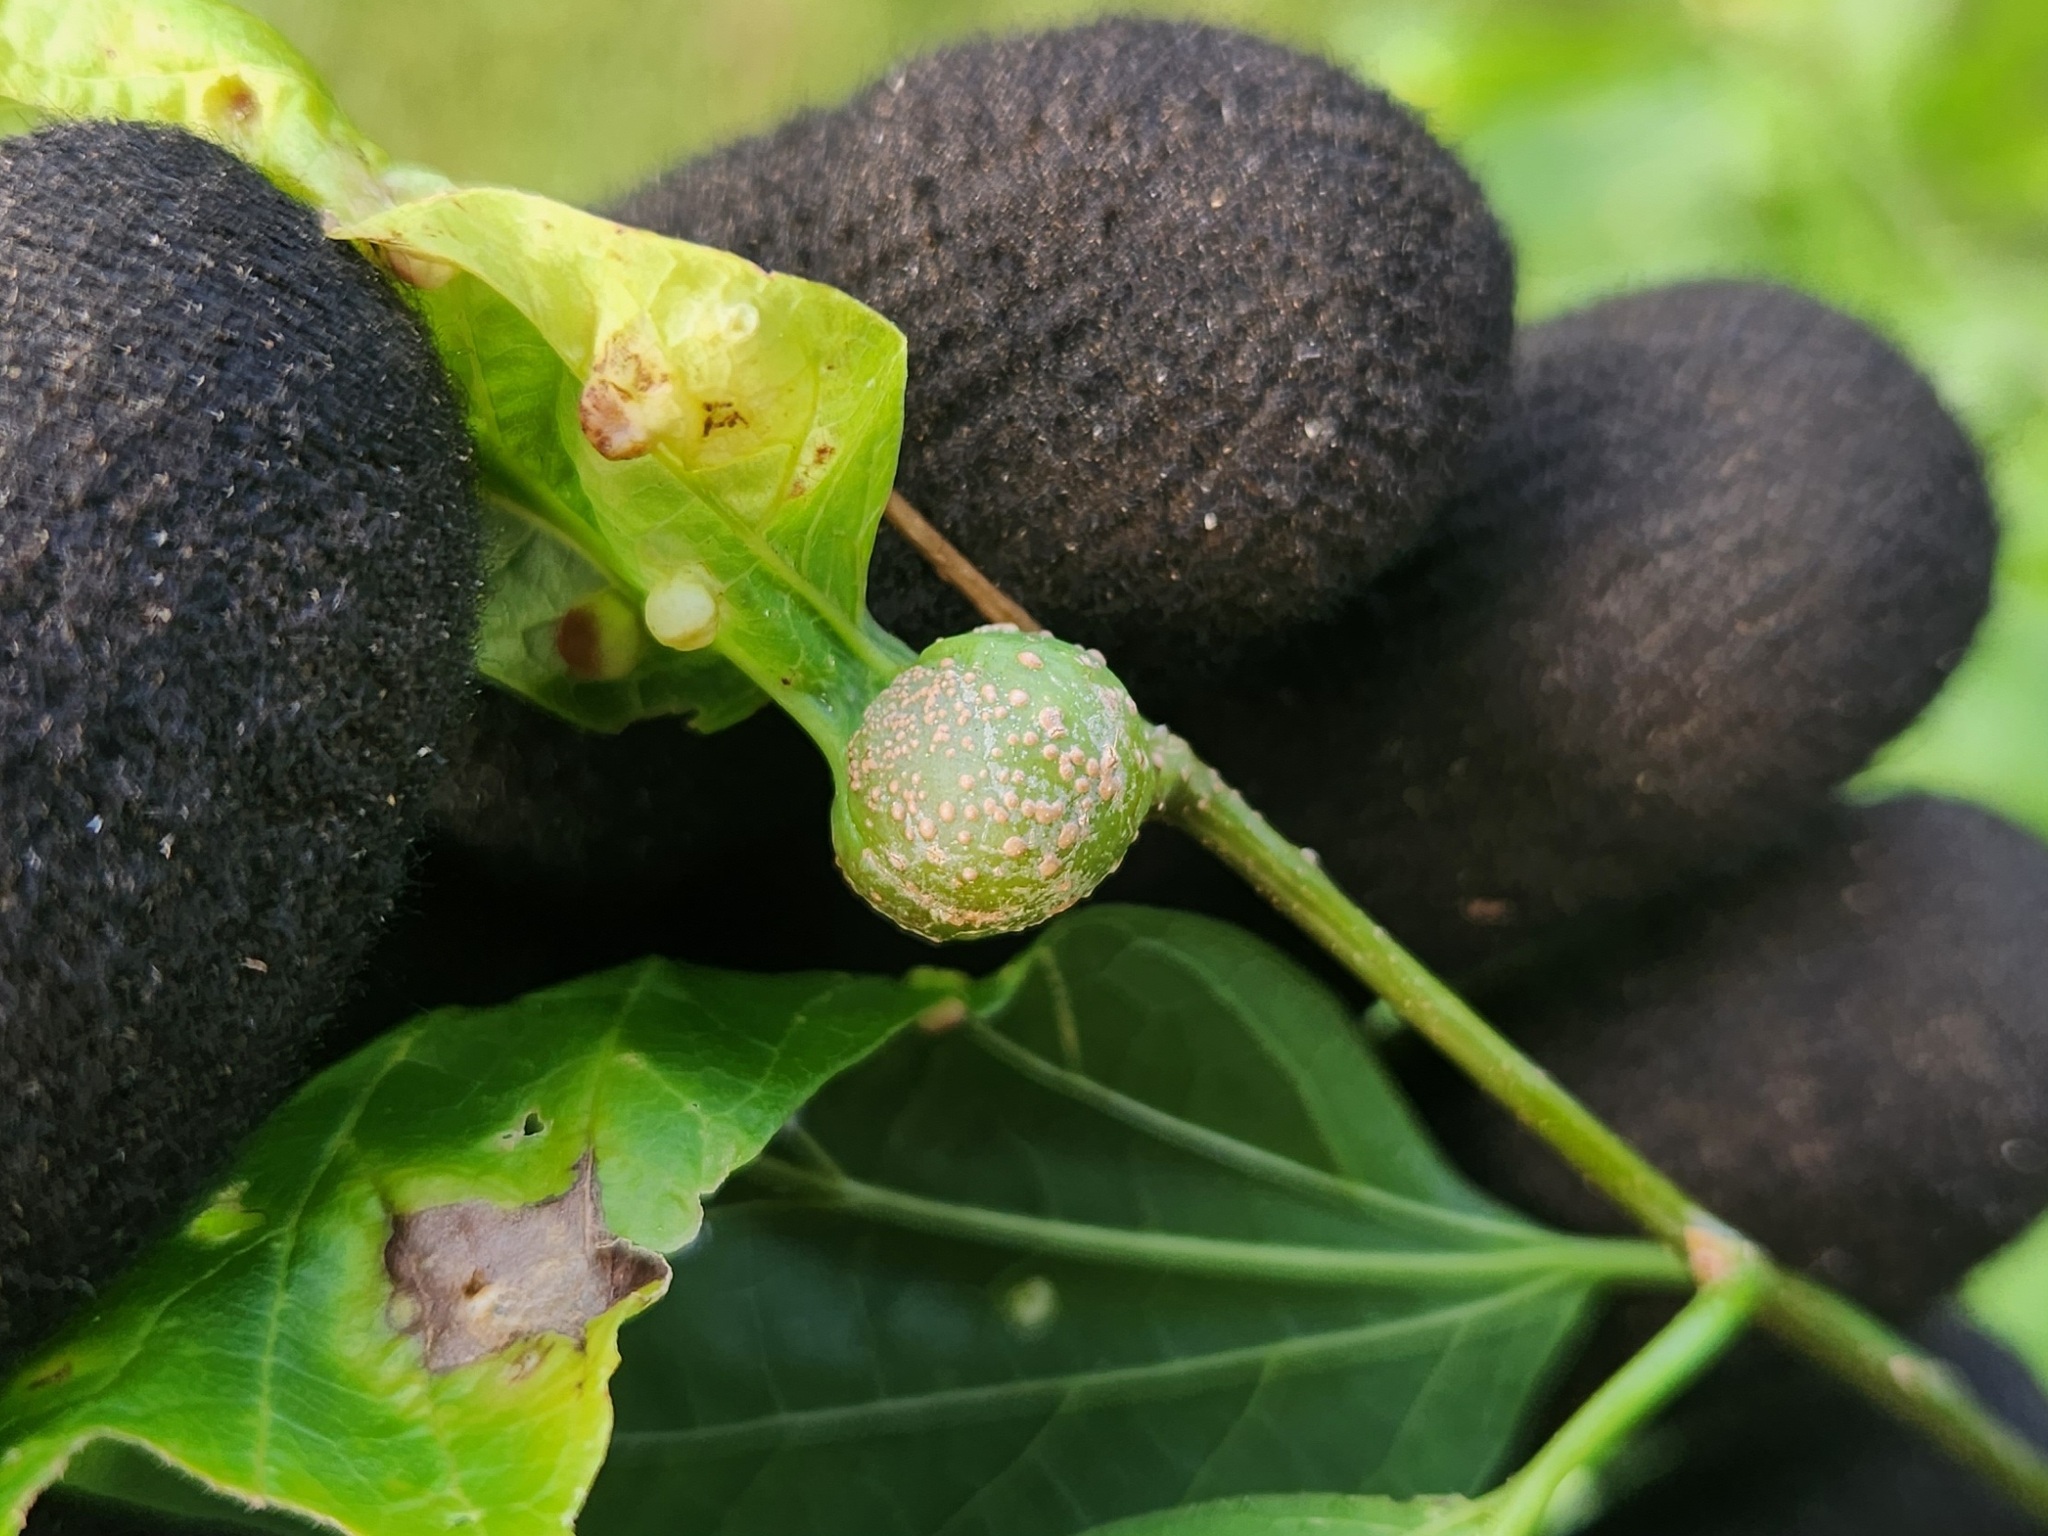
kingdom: Animalia
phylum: Arthropoda
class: Insecta
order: Hemiptera
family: Aphalaridae
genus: Pachypsylla
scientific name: Pachypsylla venusta
